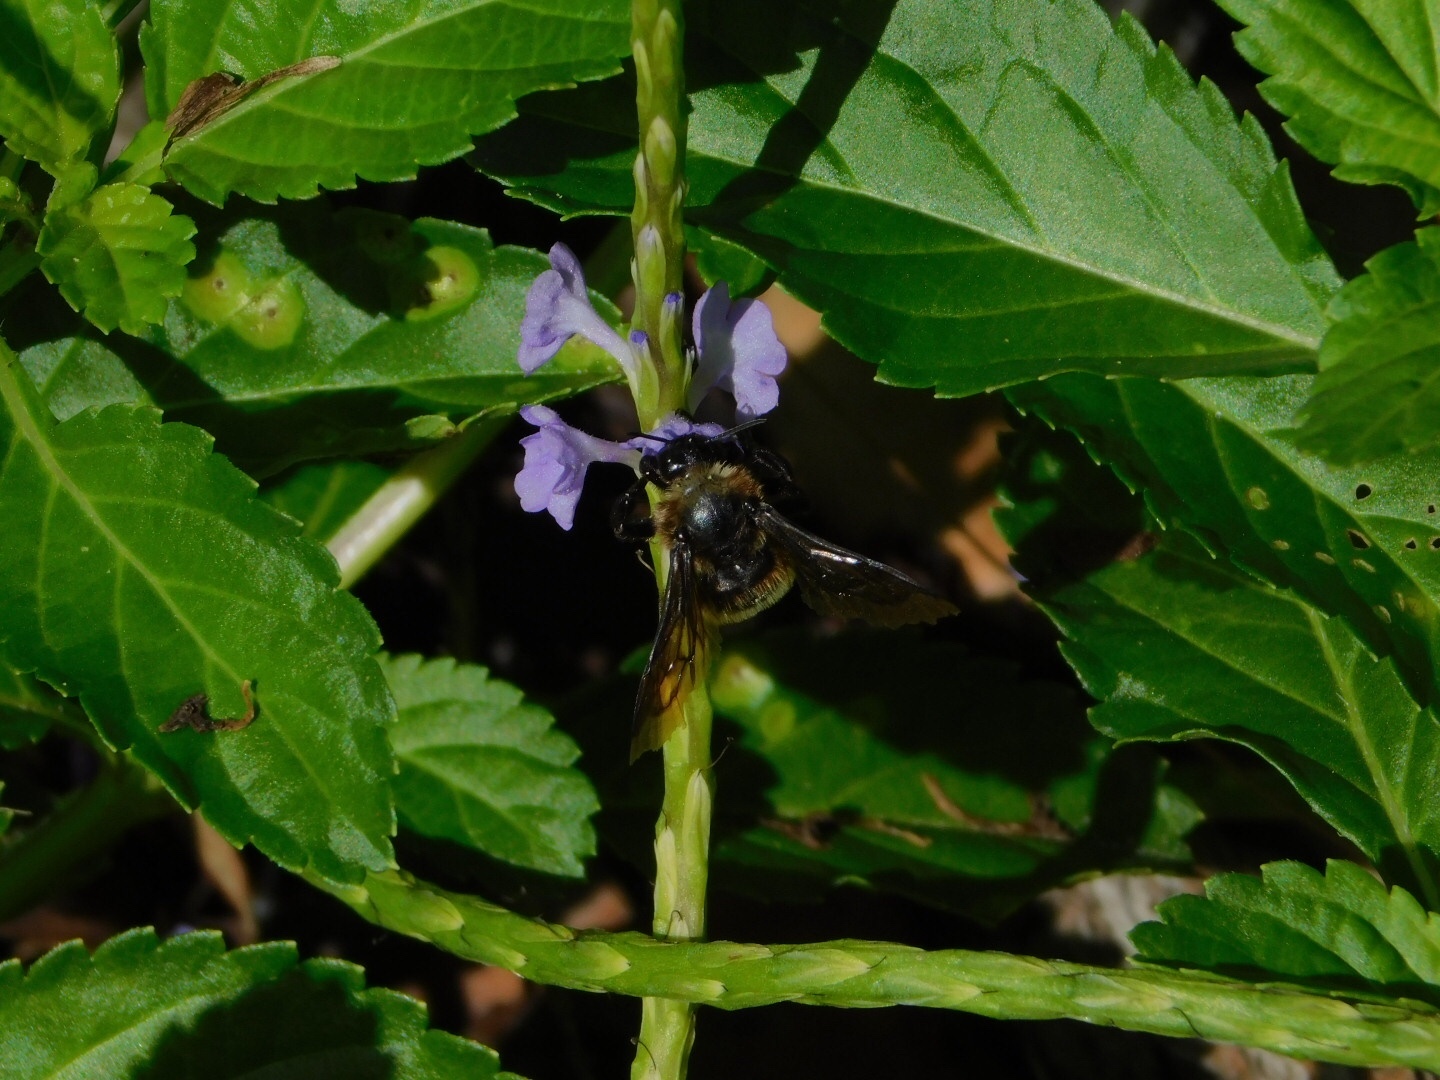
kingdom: Animalia
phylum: Arthropoda
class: Insecta
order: Hymenoptera
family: Apidae
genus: Bombus
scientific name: Bombus pensylvanicus
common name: Bumble bee
